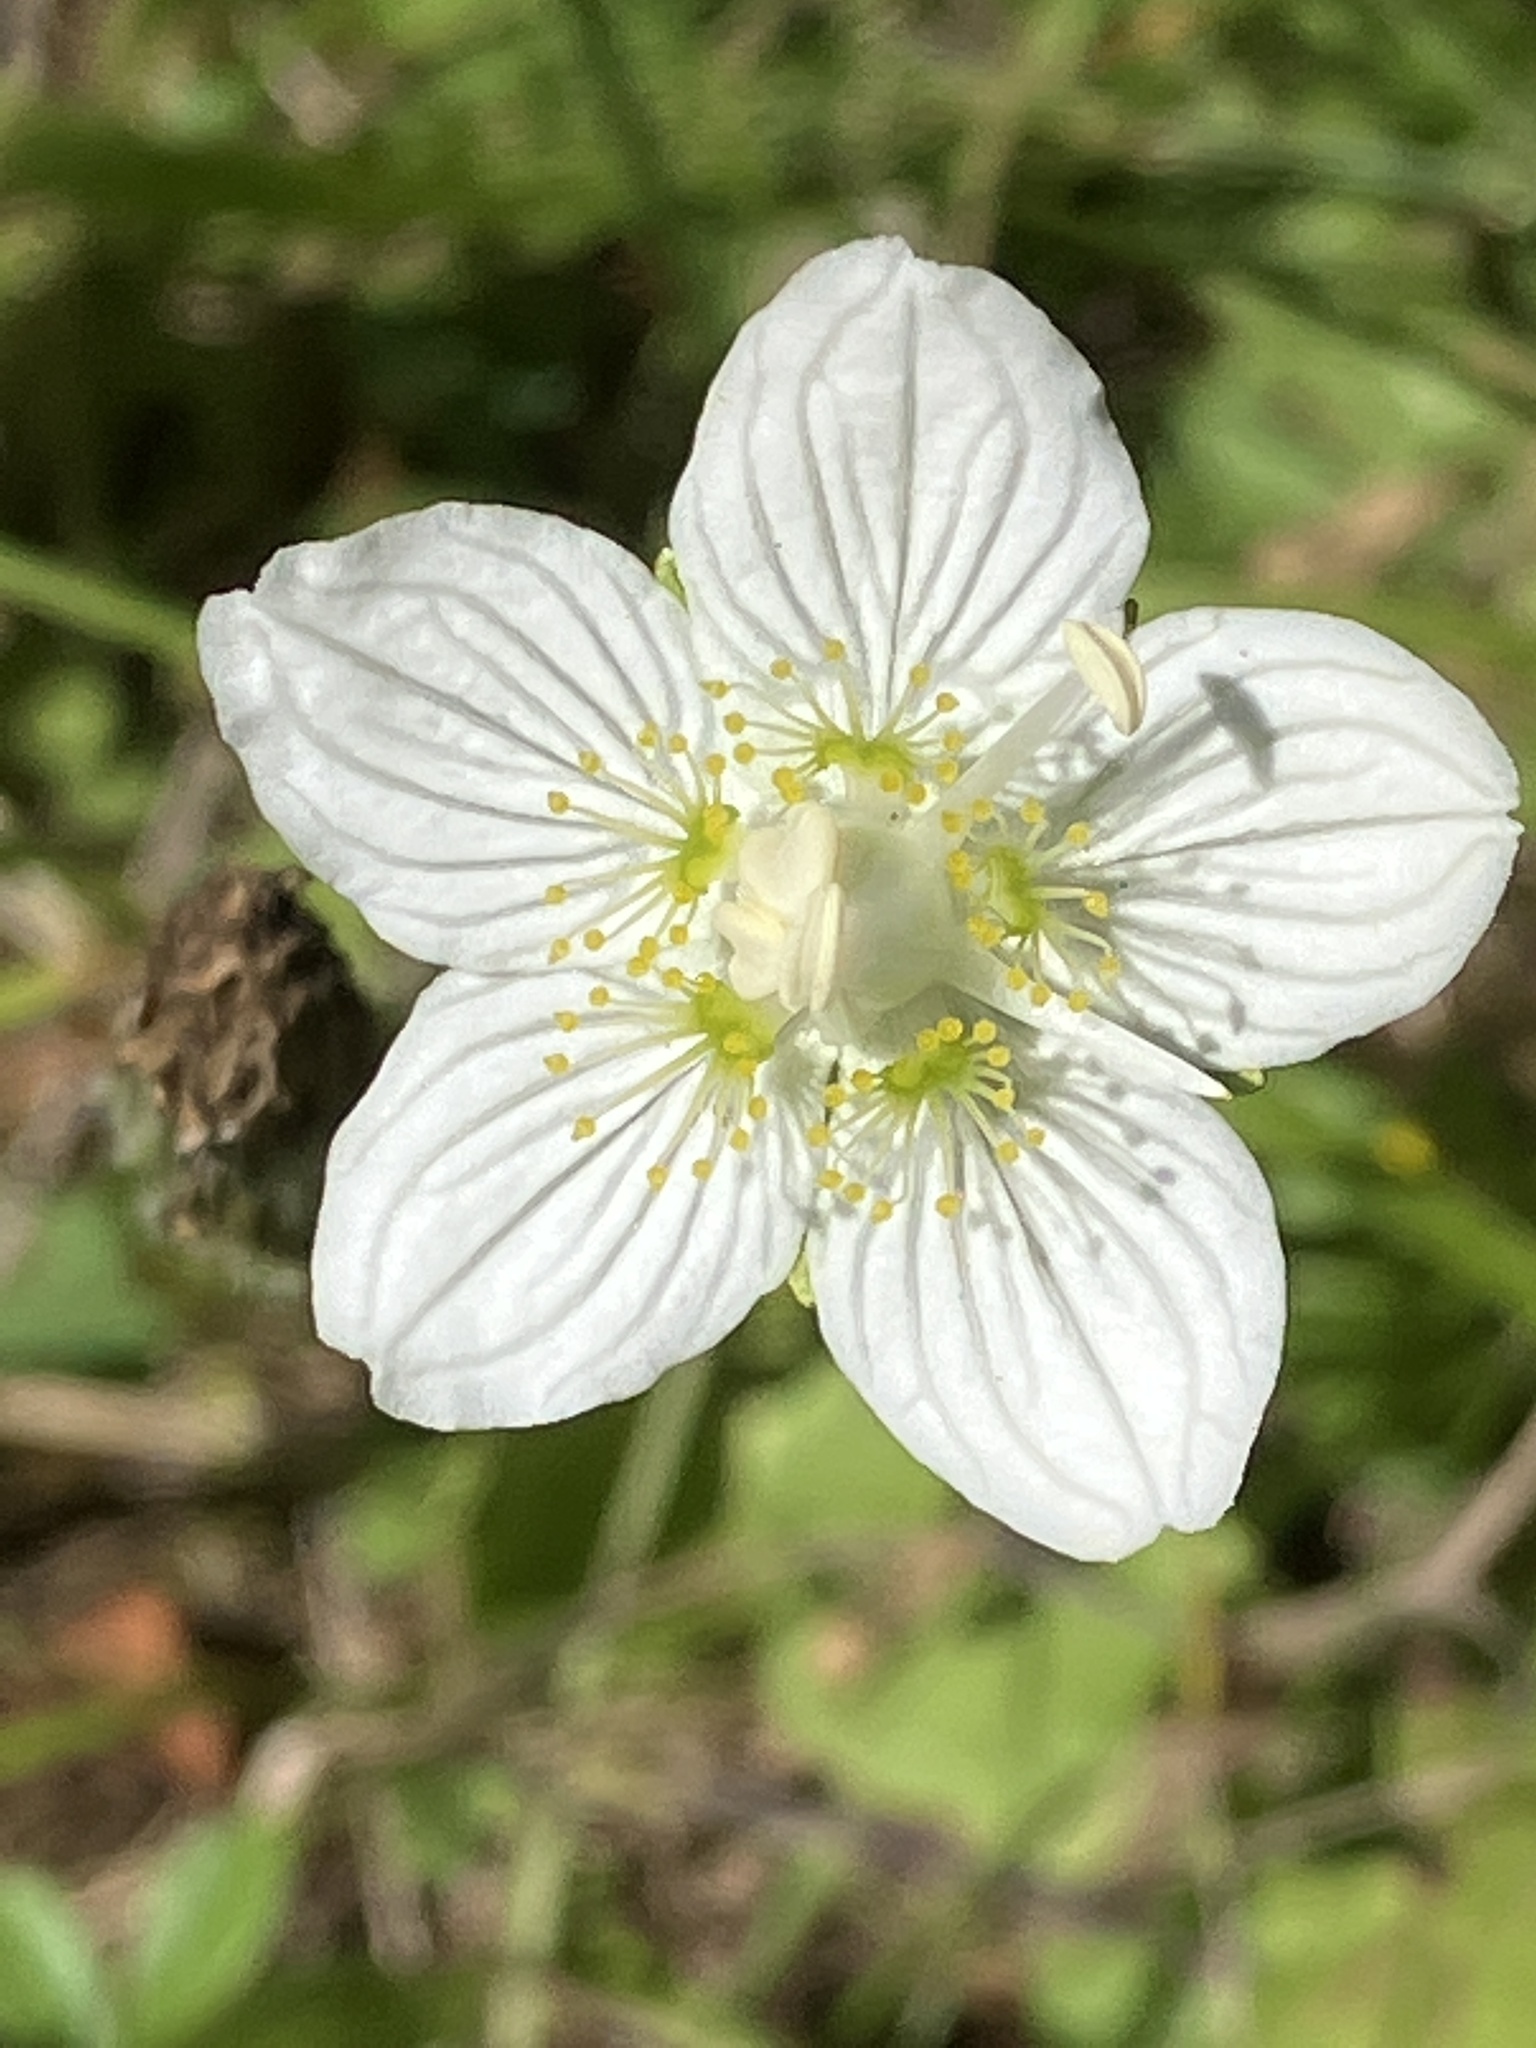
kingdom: Plantae
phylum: Tracheophyta
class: Magnoliopsida
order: Celastrales
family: Parnassiaceae
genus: Parnassia
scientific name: Parnassia palustris
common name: Grass-of-parnassus
